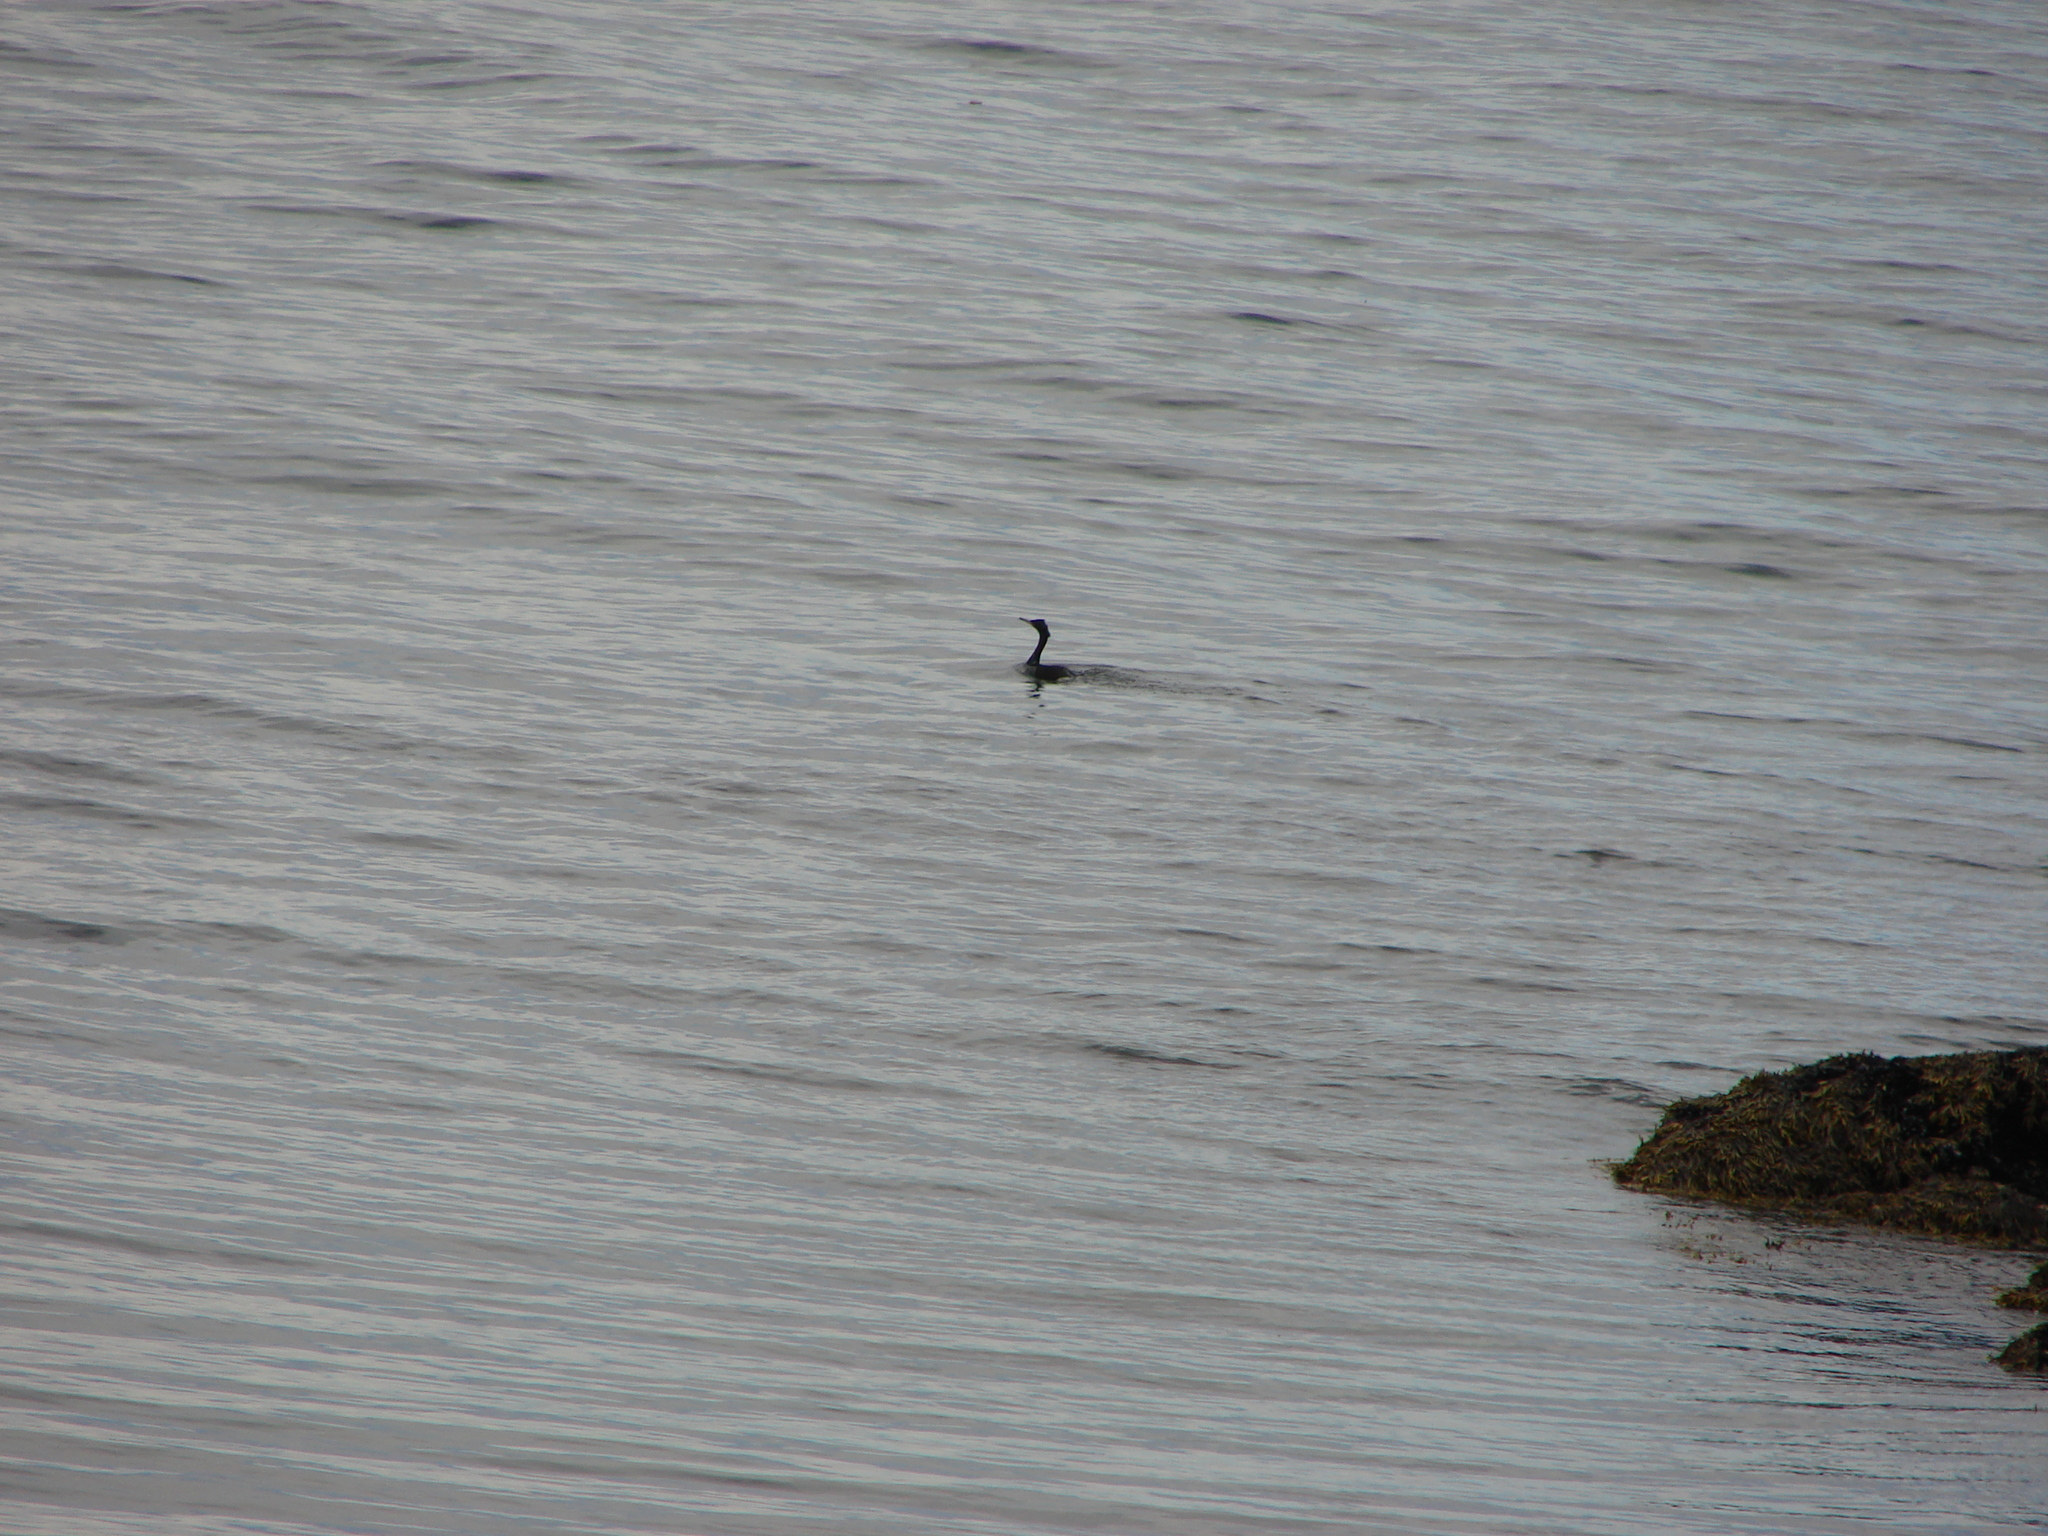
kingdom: Animalia
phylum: Chordata
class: Aves
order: Suliformes
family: Phalacrocoracidae
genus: Phalacrocorax
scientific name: Phalacrocorax pelagicus
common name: Pelagic cormorant
